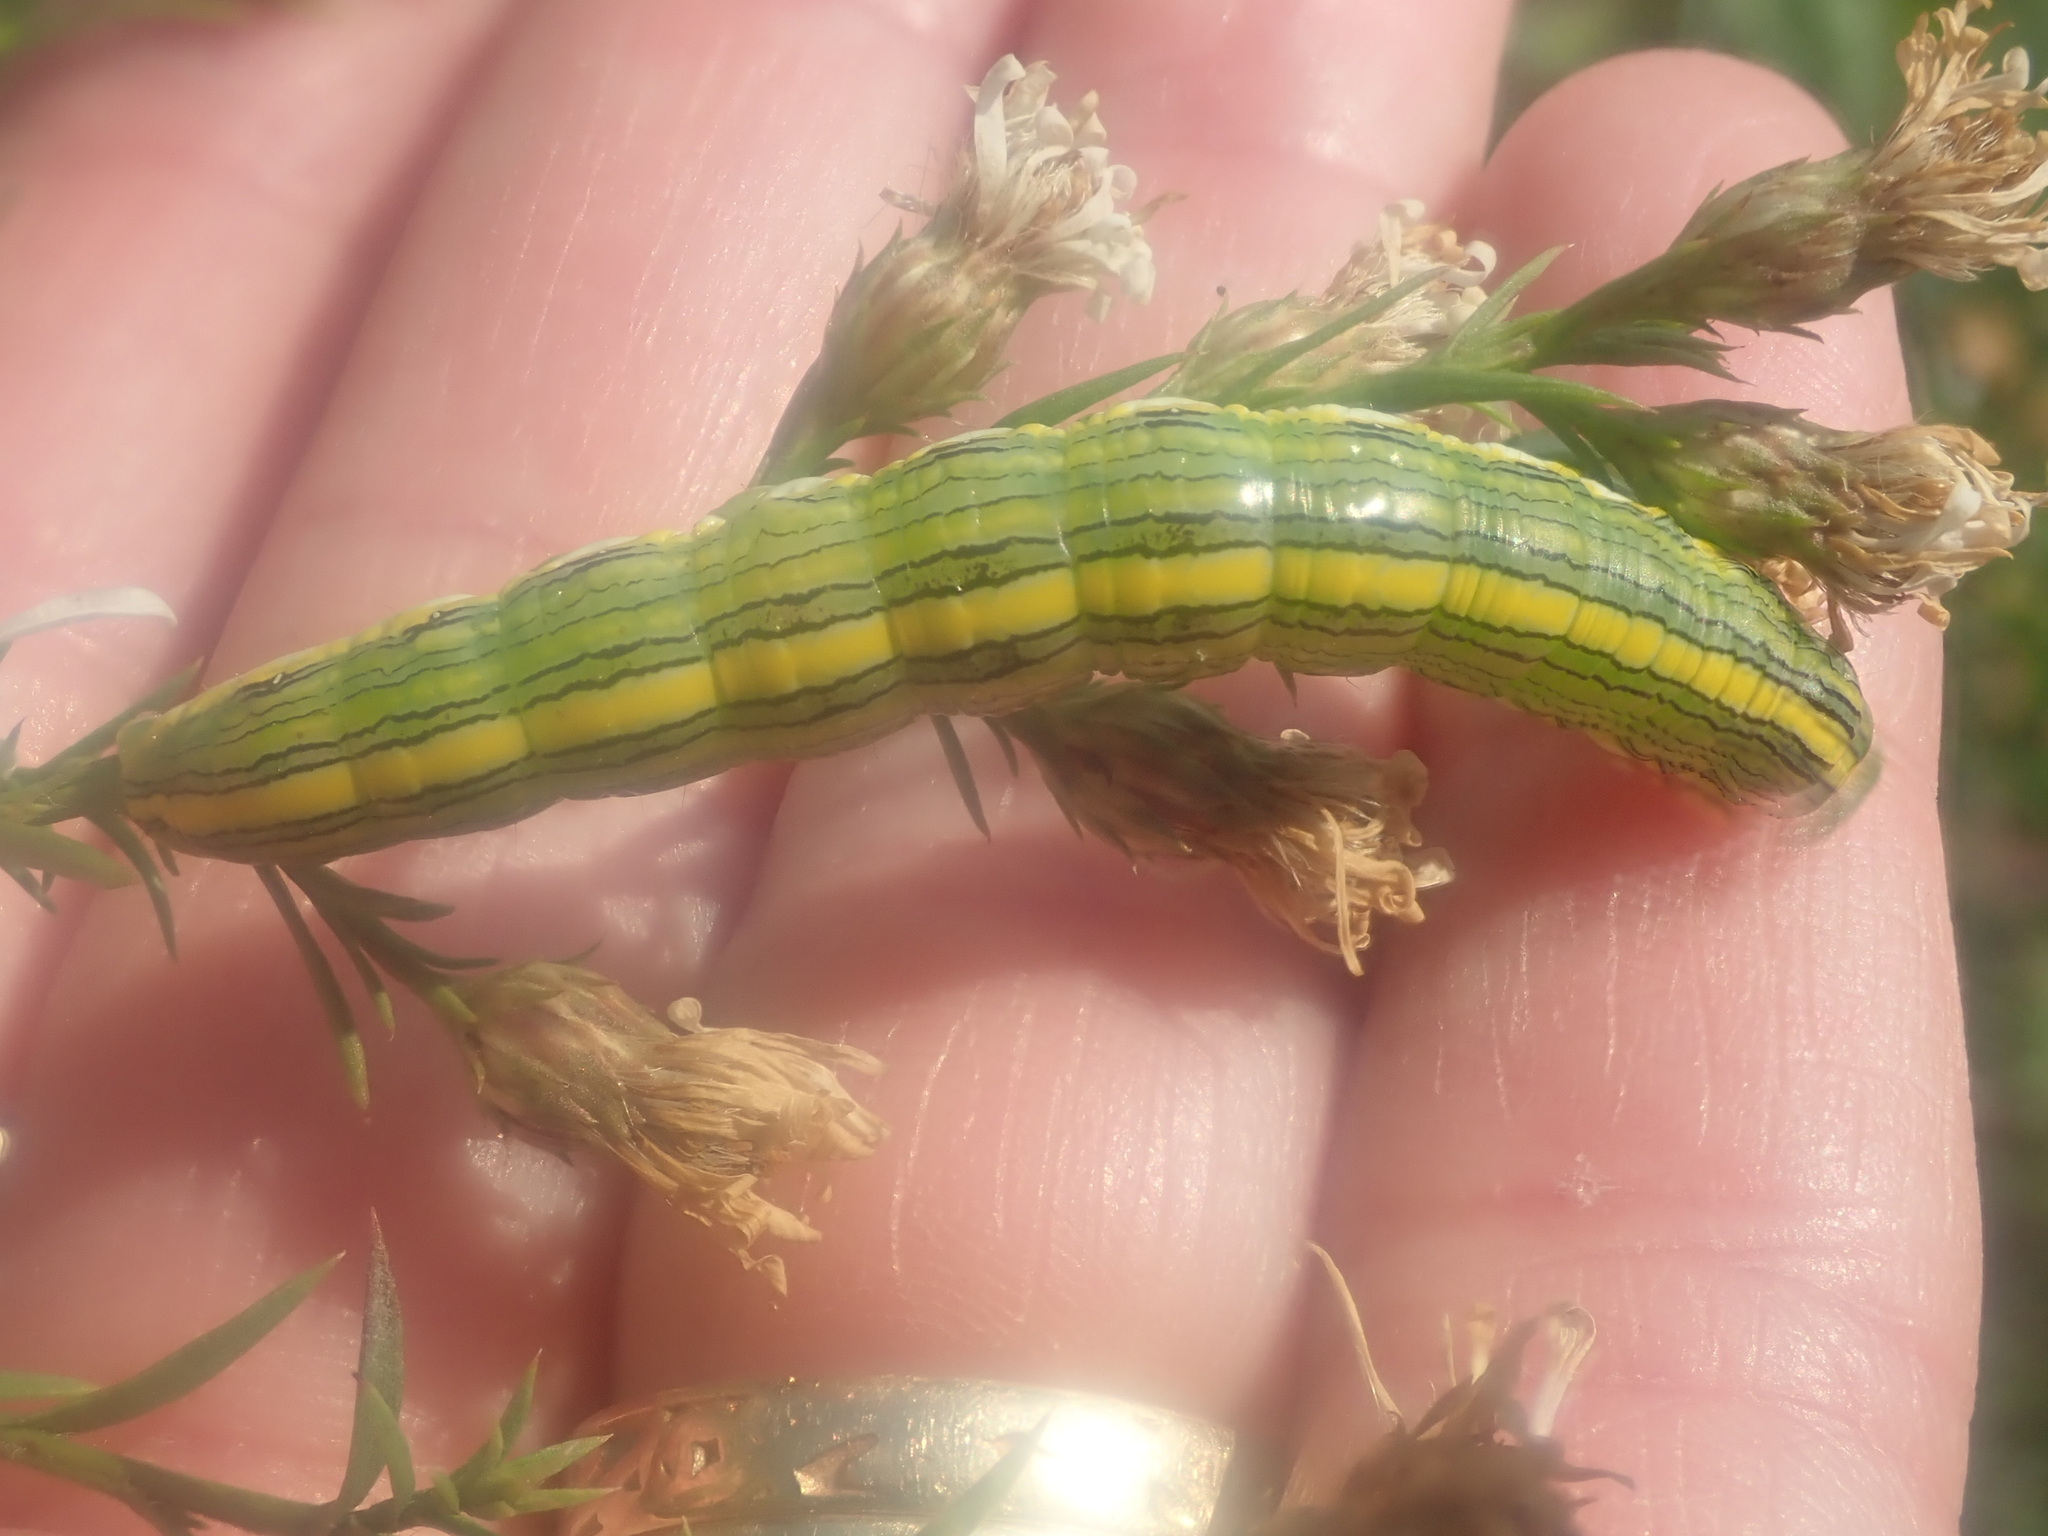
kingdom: Animalia
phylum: Arthropoda
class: Insecta
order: Lepidoptera
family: Noctuidae
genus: Cucullia
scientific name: Cucullia asteroides
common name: Asteroid moth
